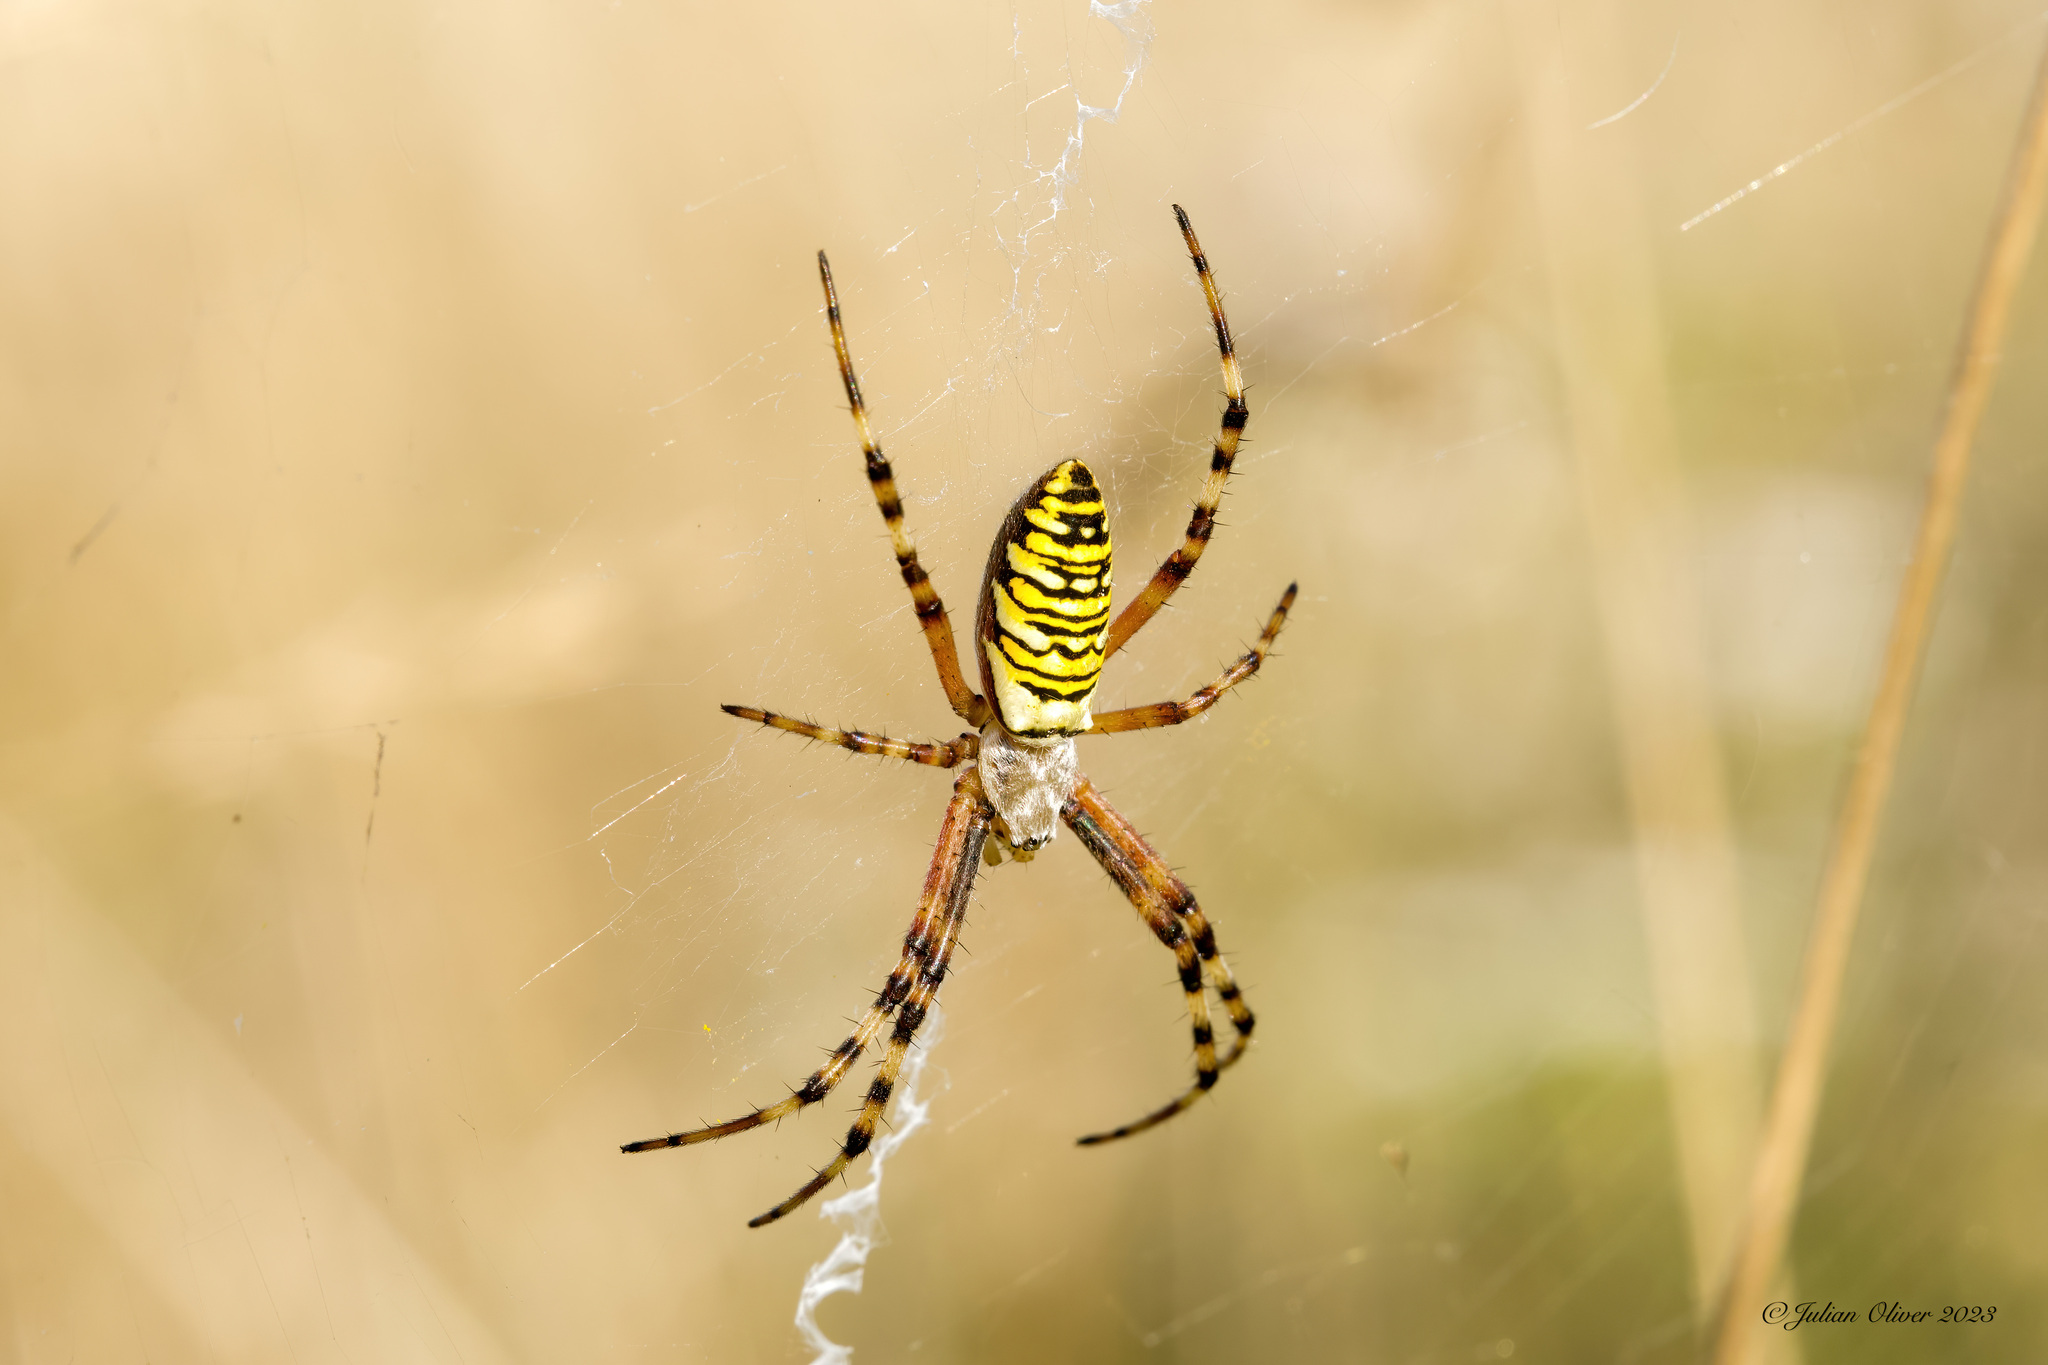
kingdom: Animalia
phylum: Arthropoda
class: Arachnida
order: Araneae
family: Araneidae
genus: Argiope
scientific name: Argiope bruennichi
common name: Wasp spider
